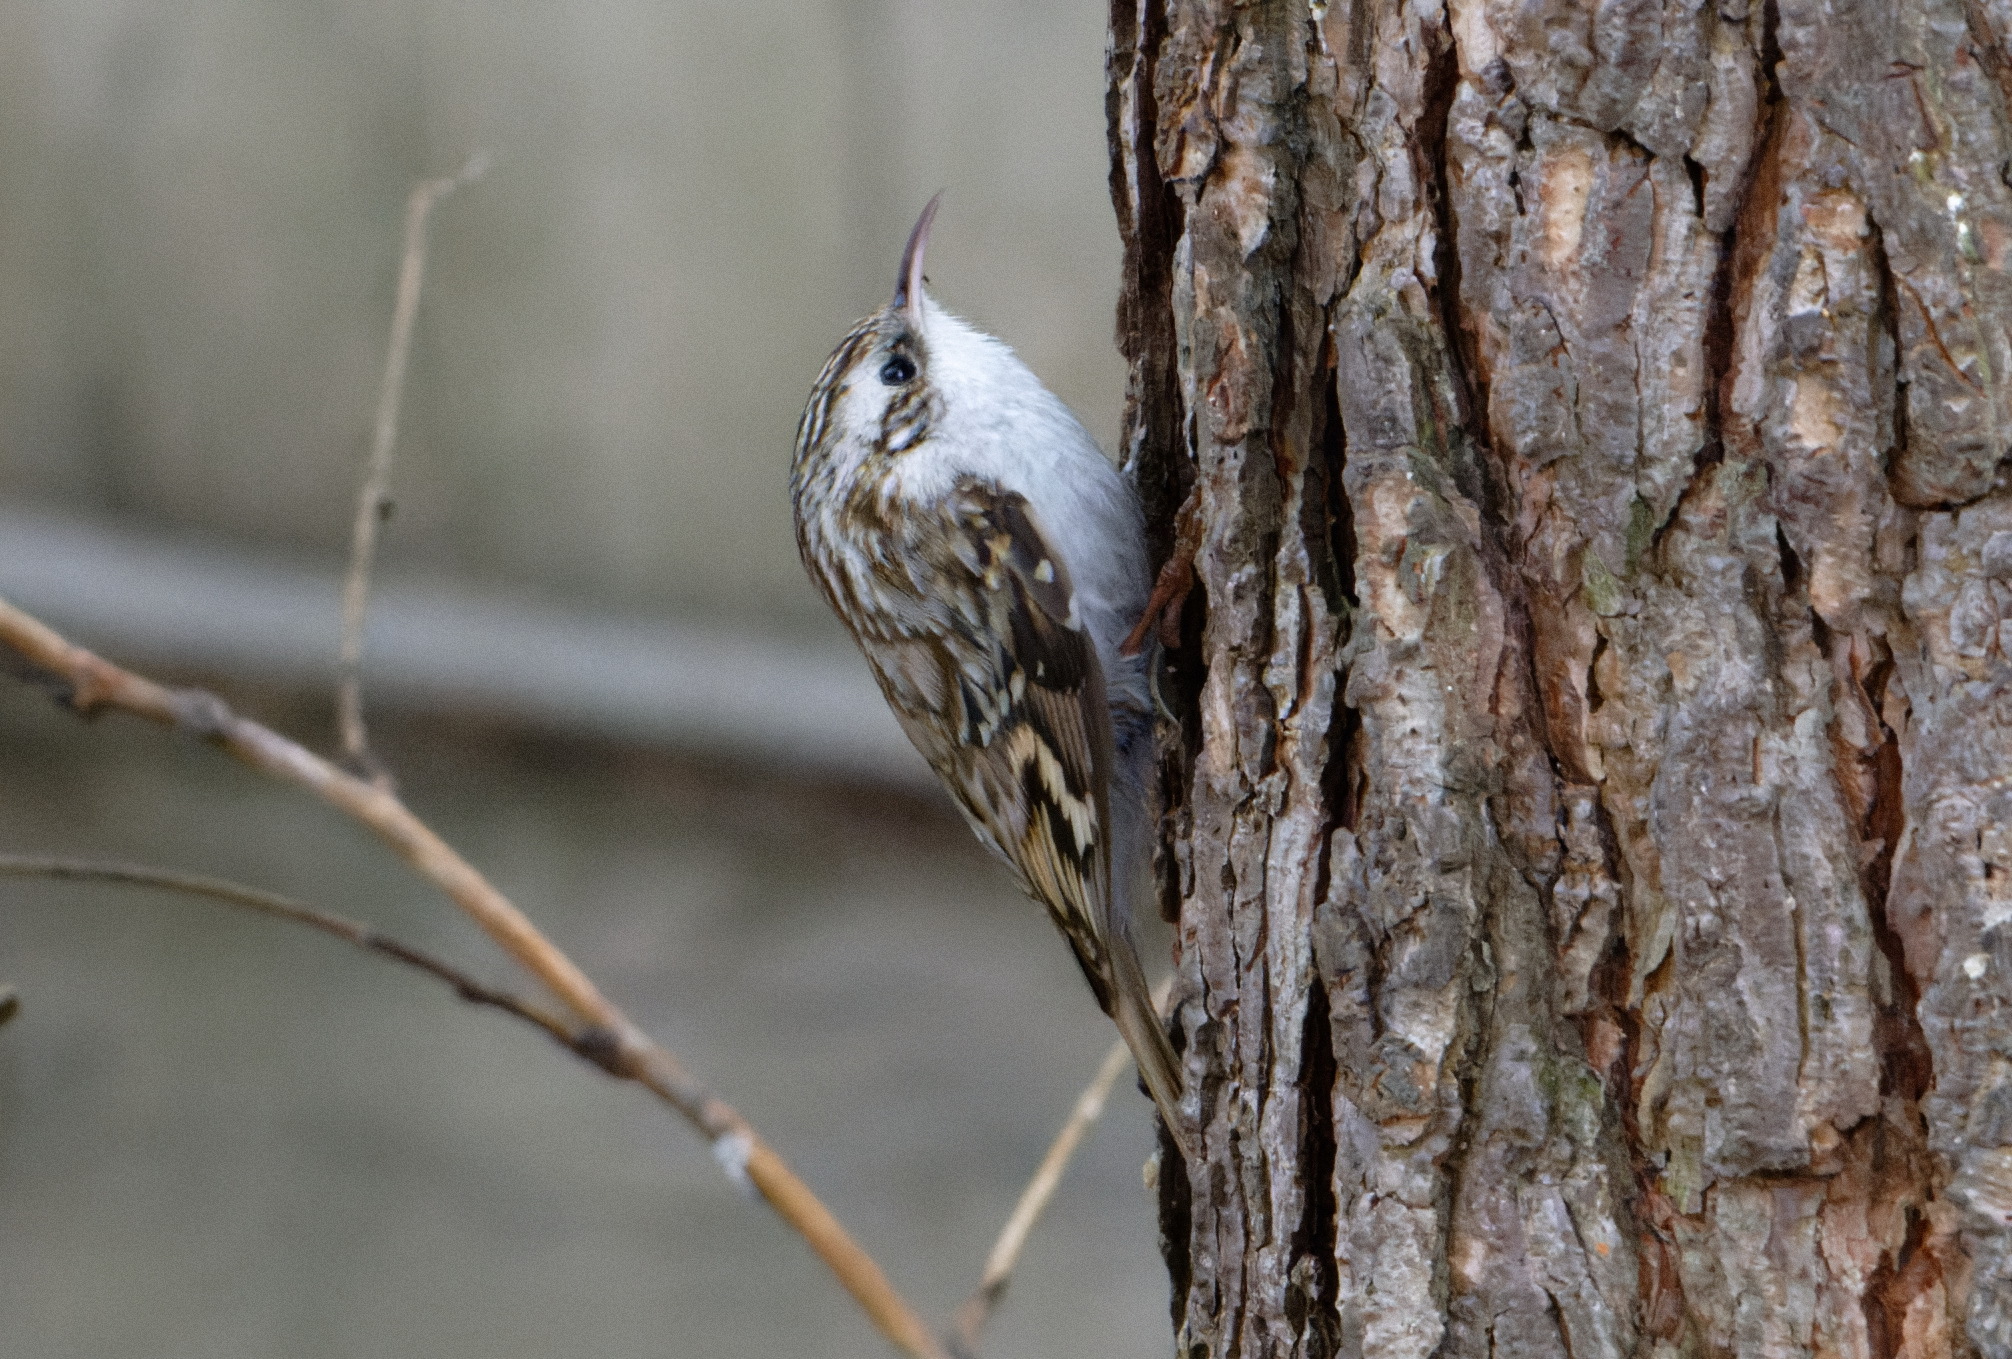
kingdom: Animalia
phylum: Chordata
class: Aves
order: Passeriformes
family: Certhiidae
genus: Certhia
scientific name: Certhia familiaris
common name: Eurasian treecreeper
